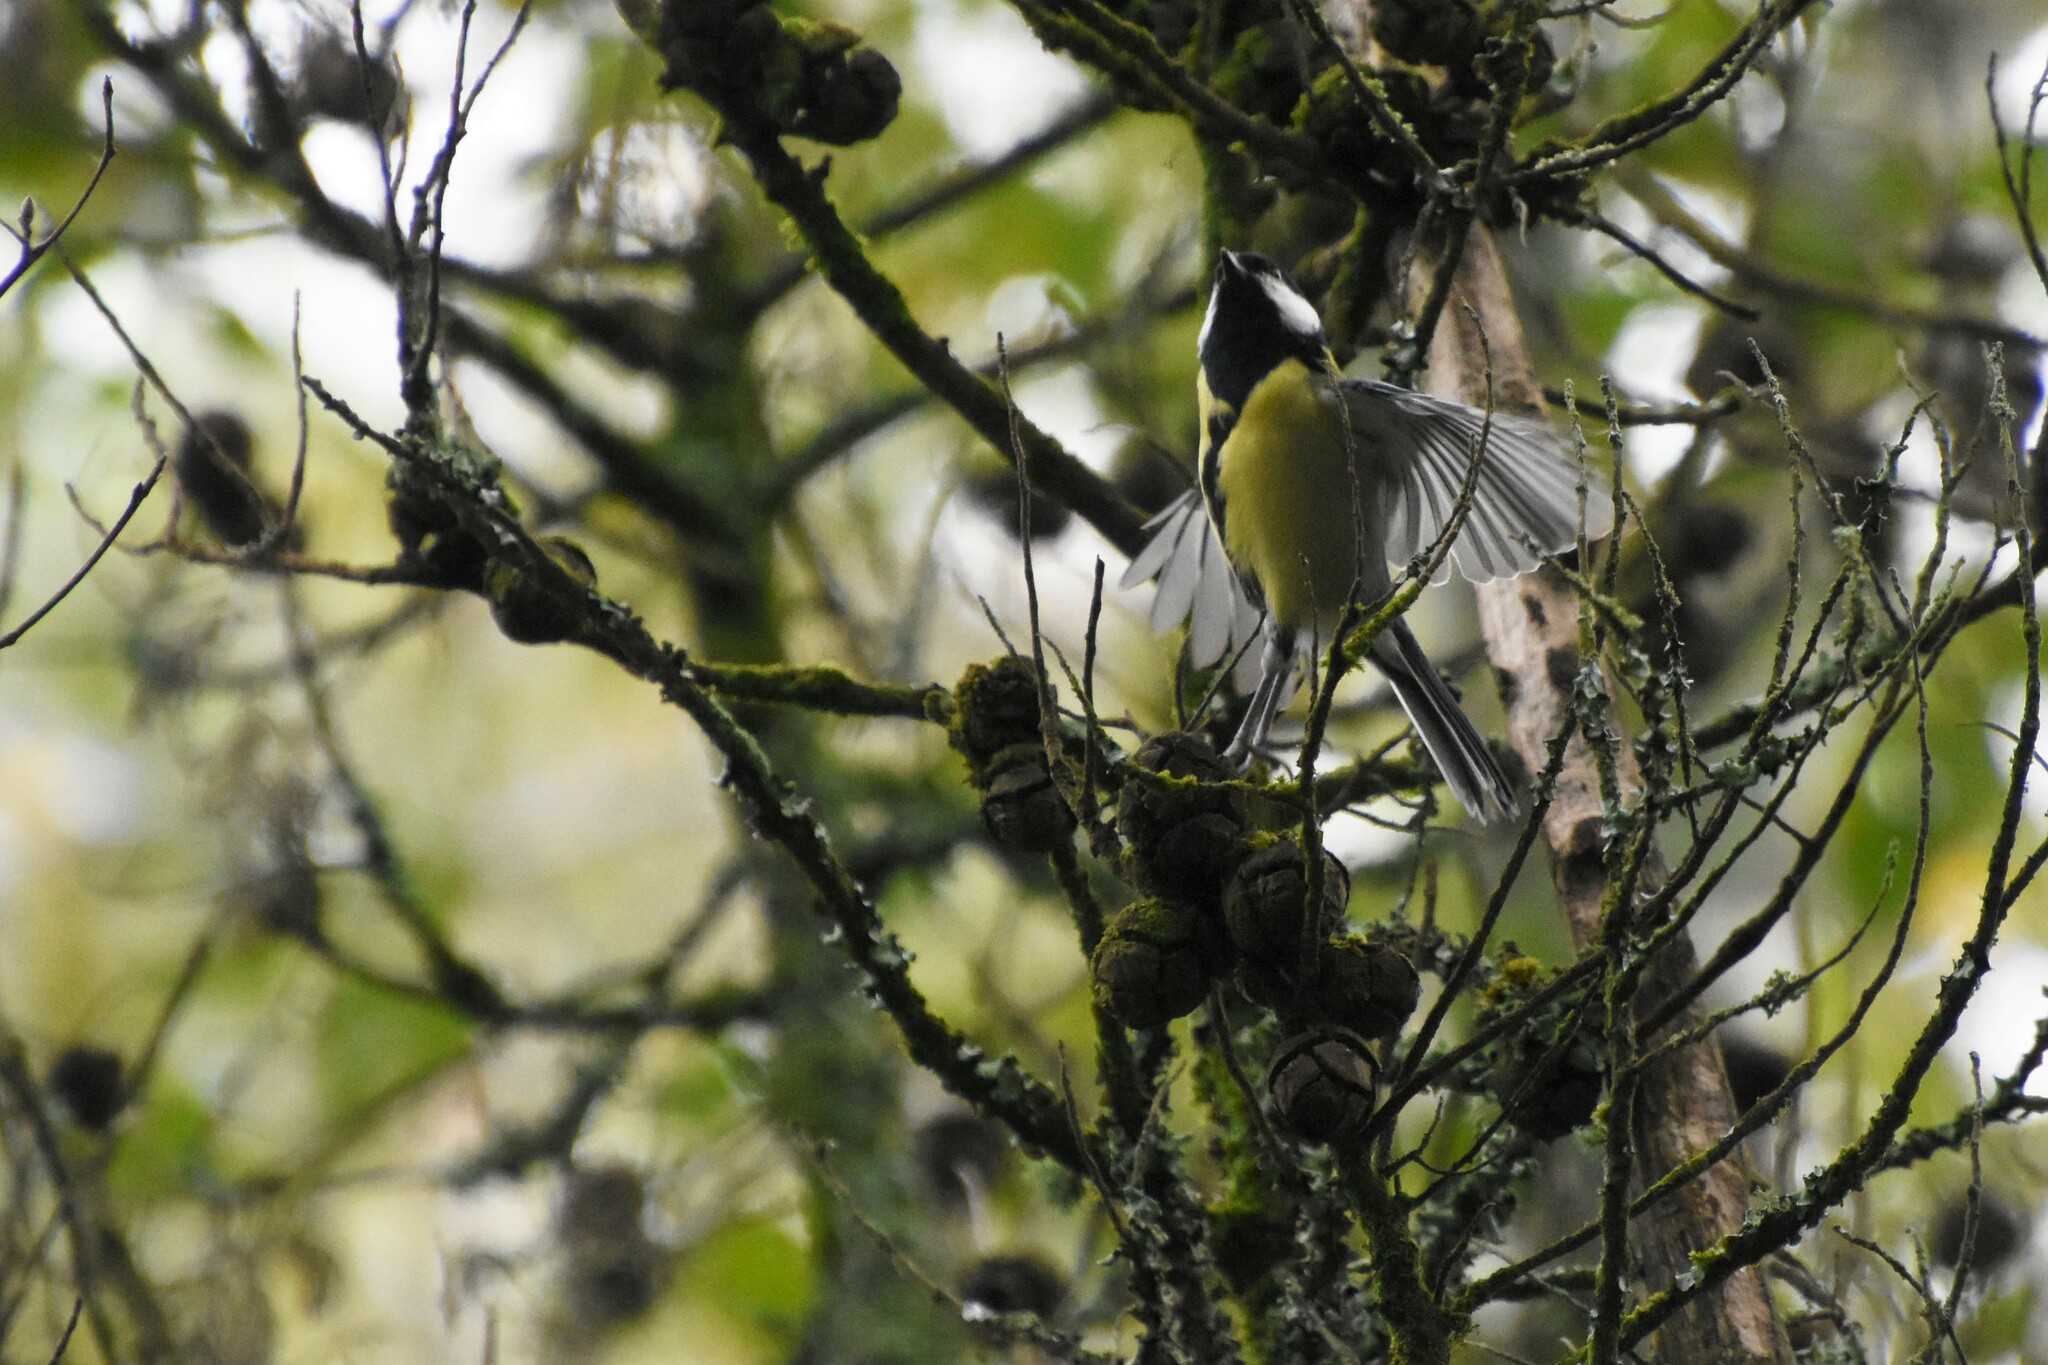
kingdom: Animalia
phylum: Chordata
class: Aves
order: Passeriformes
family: Paridae
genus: Parus
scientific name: Parus major
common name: Great tit
